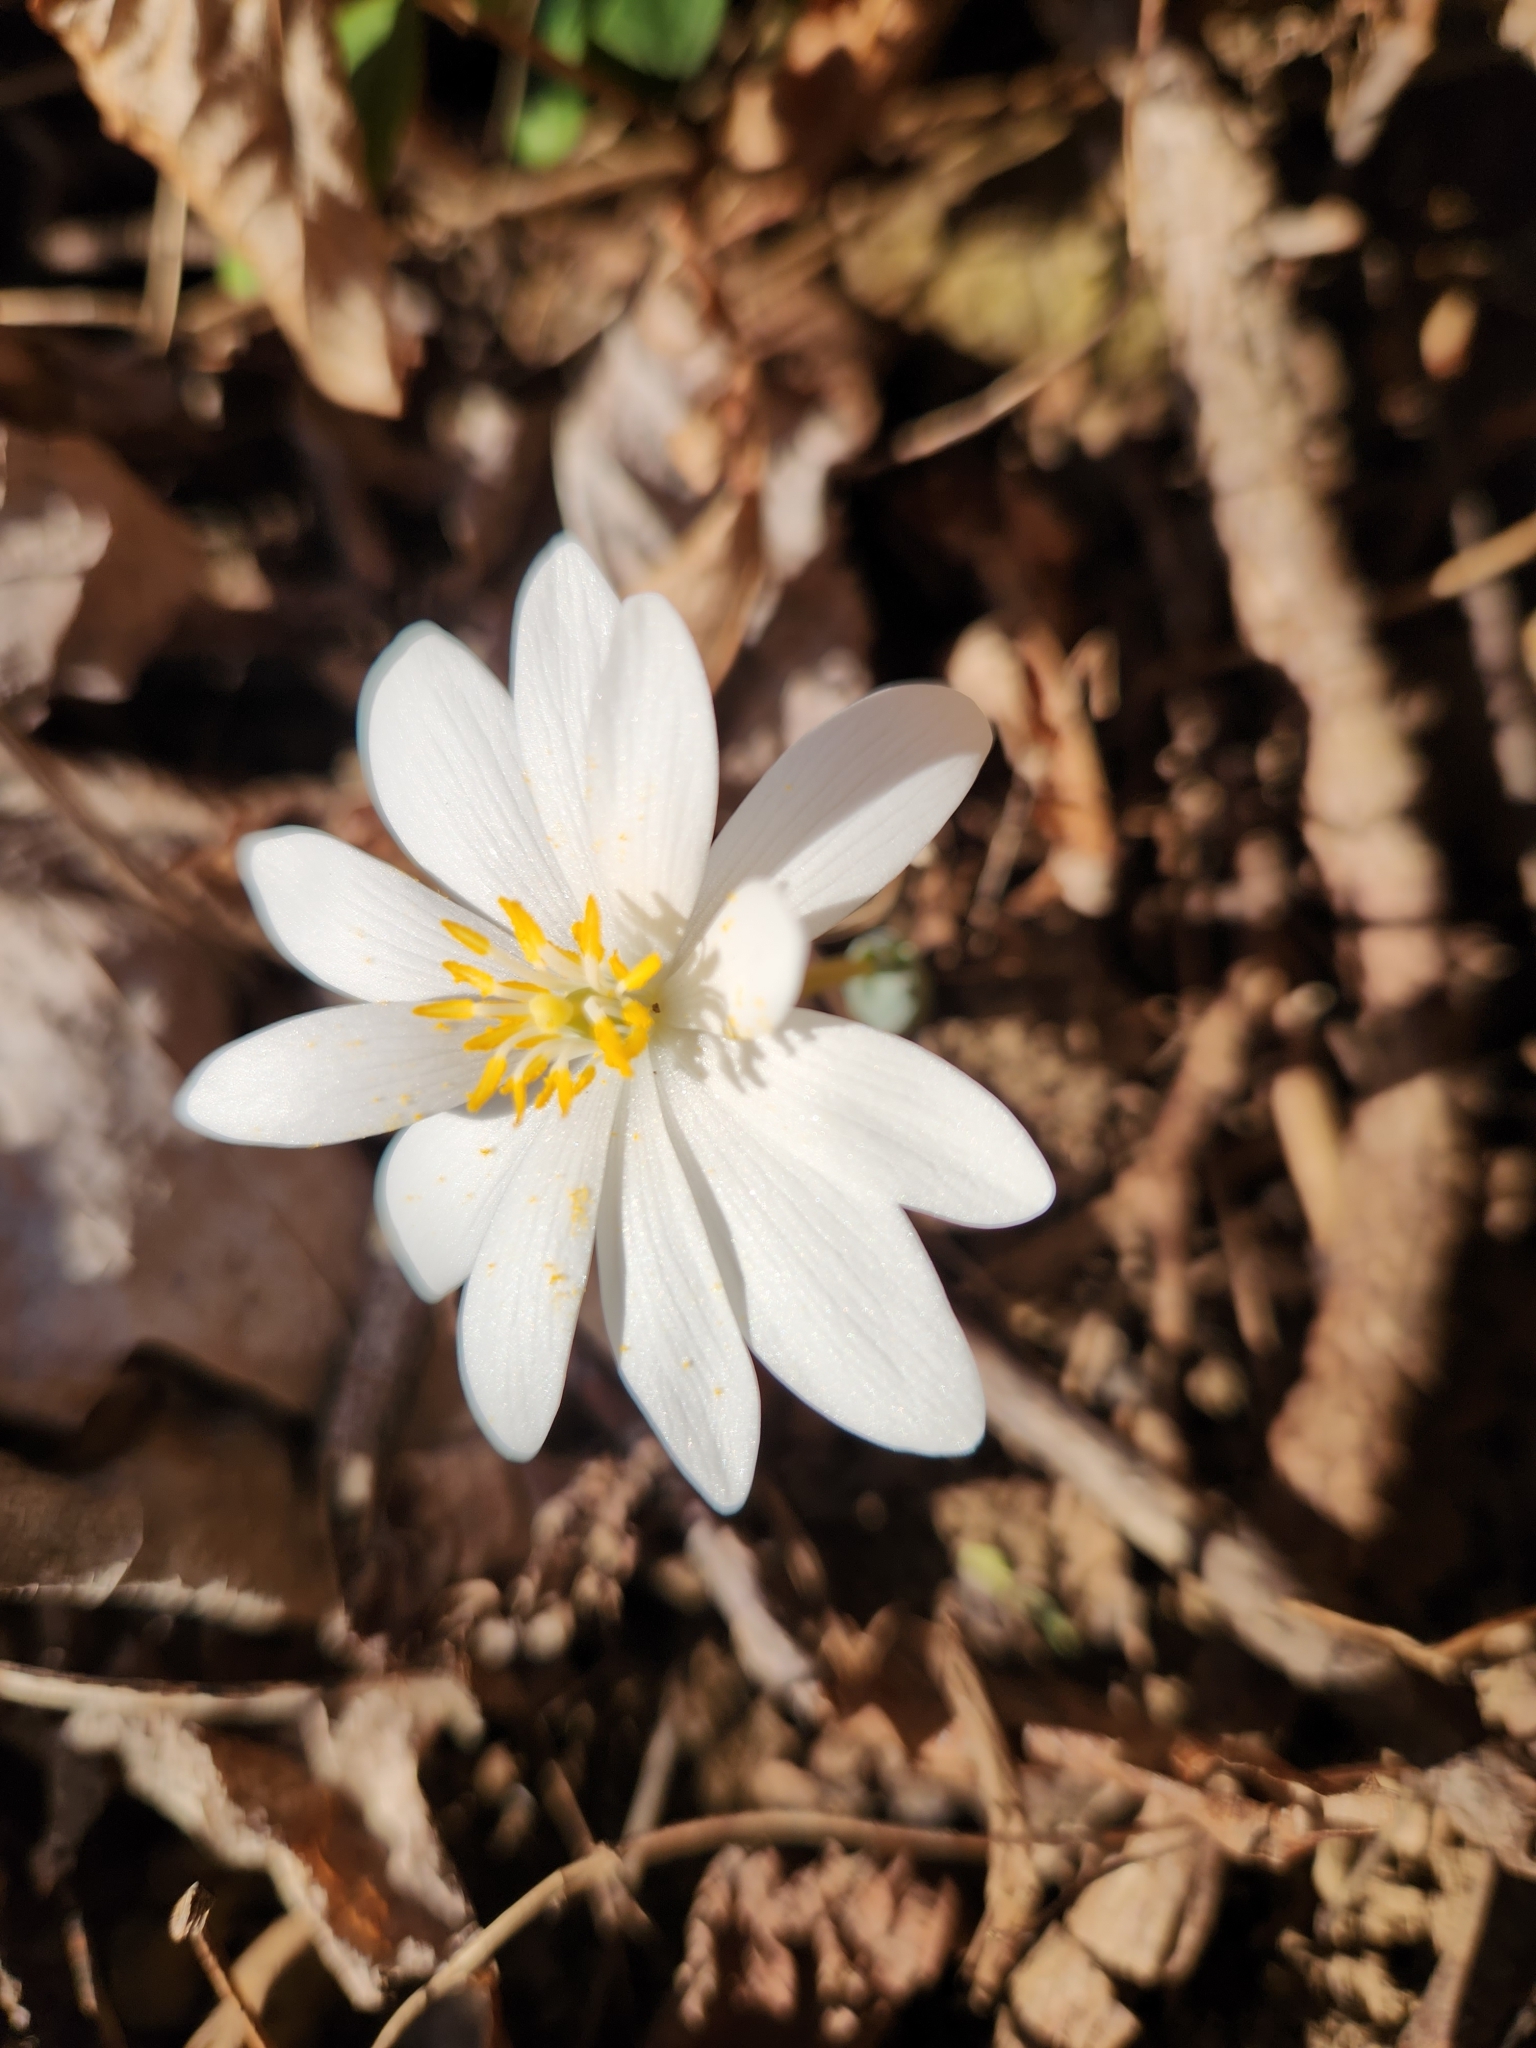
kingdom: Plantae
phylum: Tracheophyta
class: Magnoliopsida
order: Ranunculales
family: Papaveraceae
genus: Sanguinaria
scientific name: Sanguinaria canadensis
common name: Bloodroot
